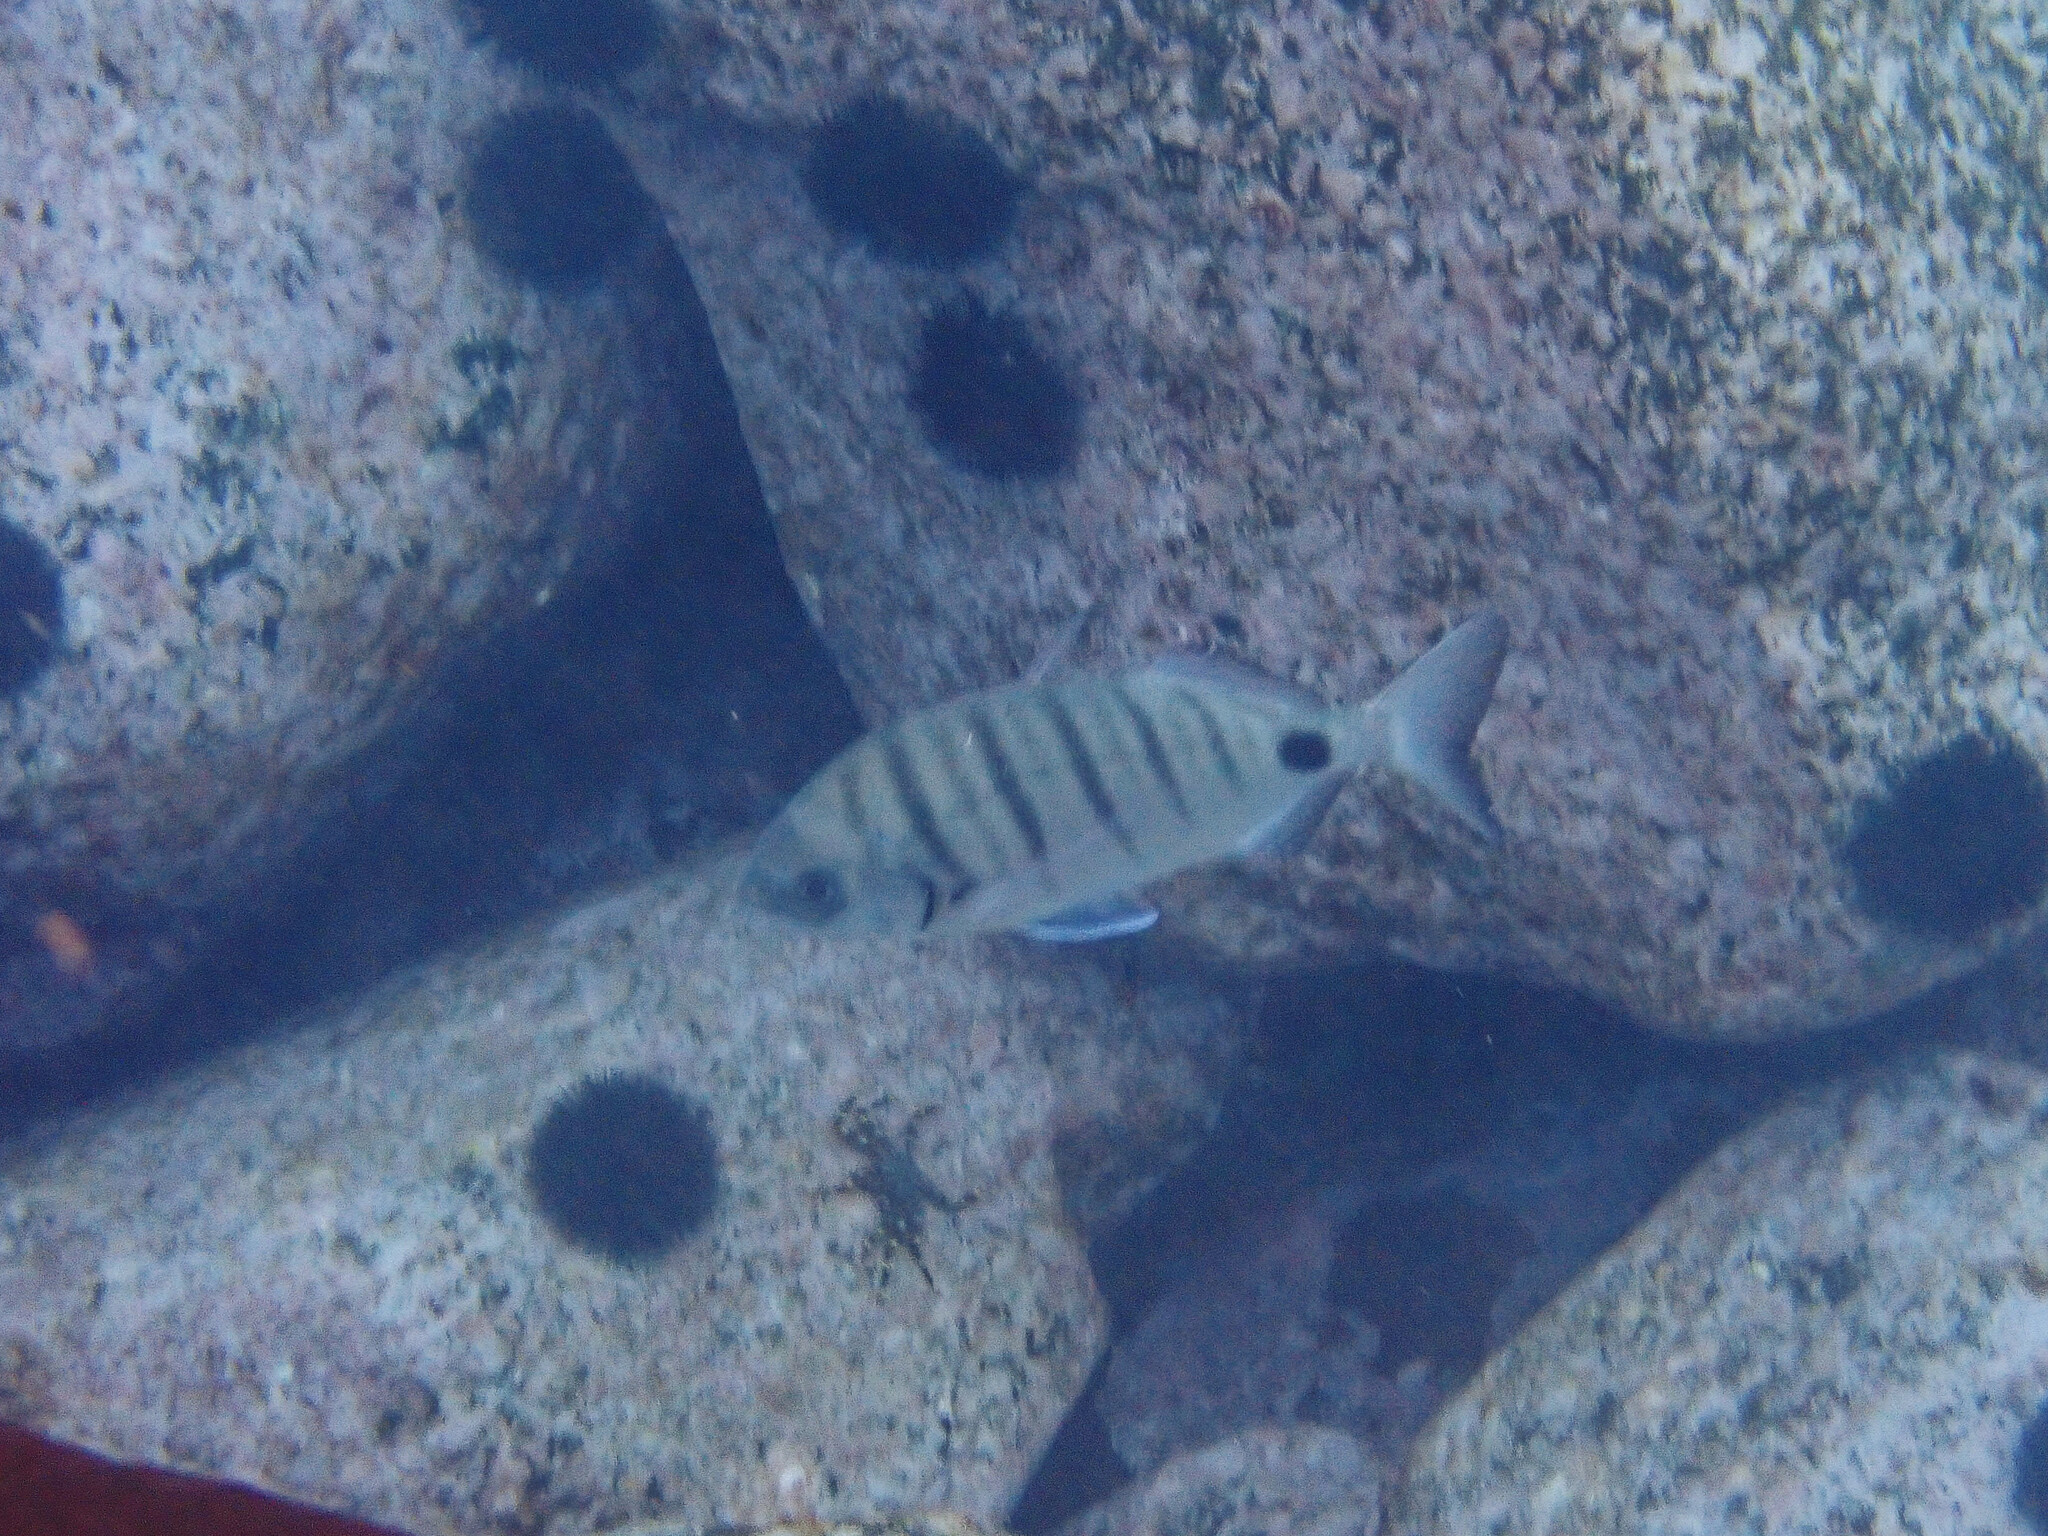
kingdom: Animalia
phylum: Chordata
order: Perciformes
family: Sparidae
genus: Diplodus
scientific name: Diplodus cadenati
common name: Moroccan white seabream
